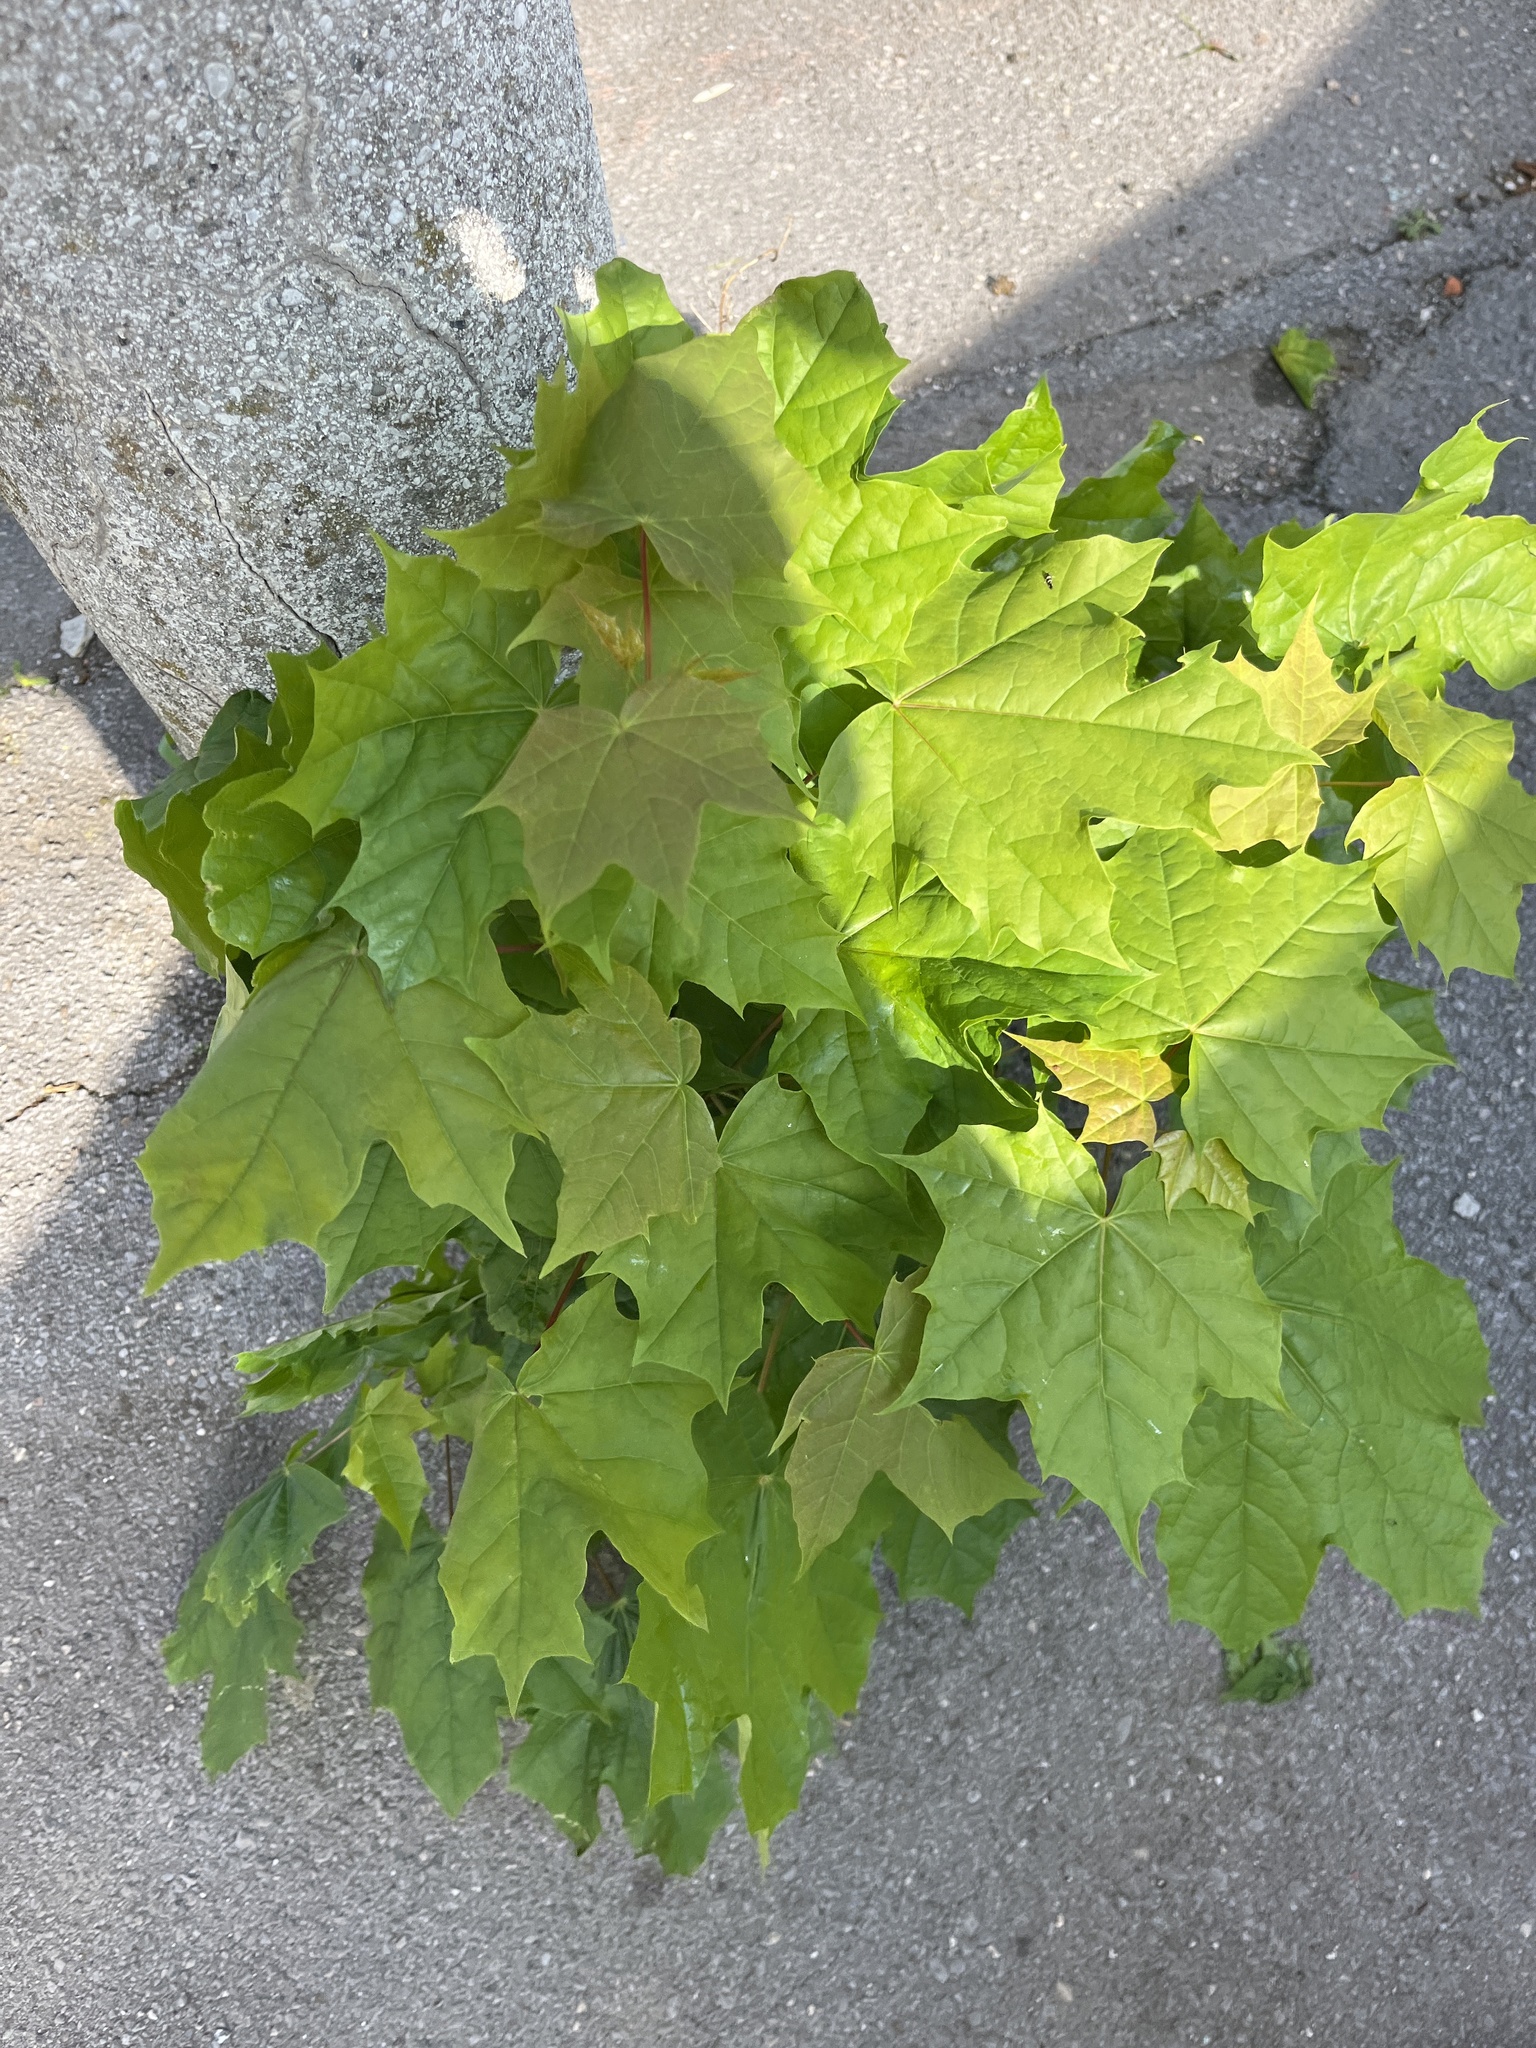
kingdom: Plantae
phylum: Tracheophyta
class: Magnoliopsida
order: Sapindales
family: Sapindaceae
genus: Acer
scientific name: Acer platanoides
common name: Norway maple
